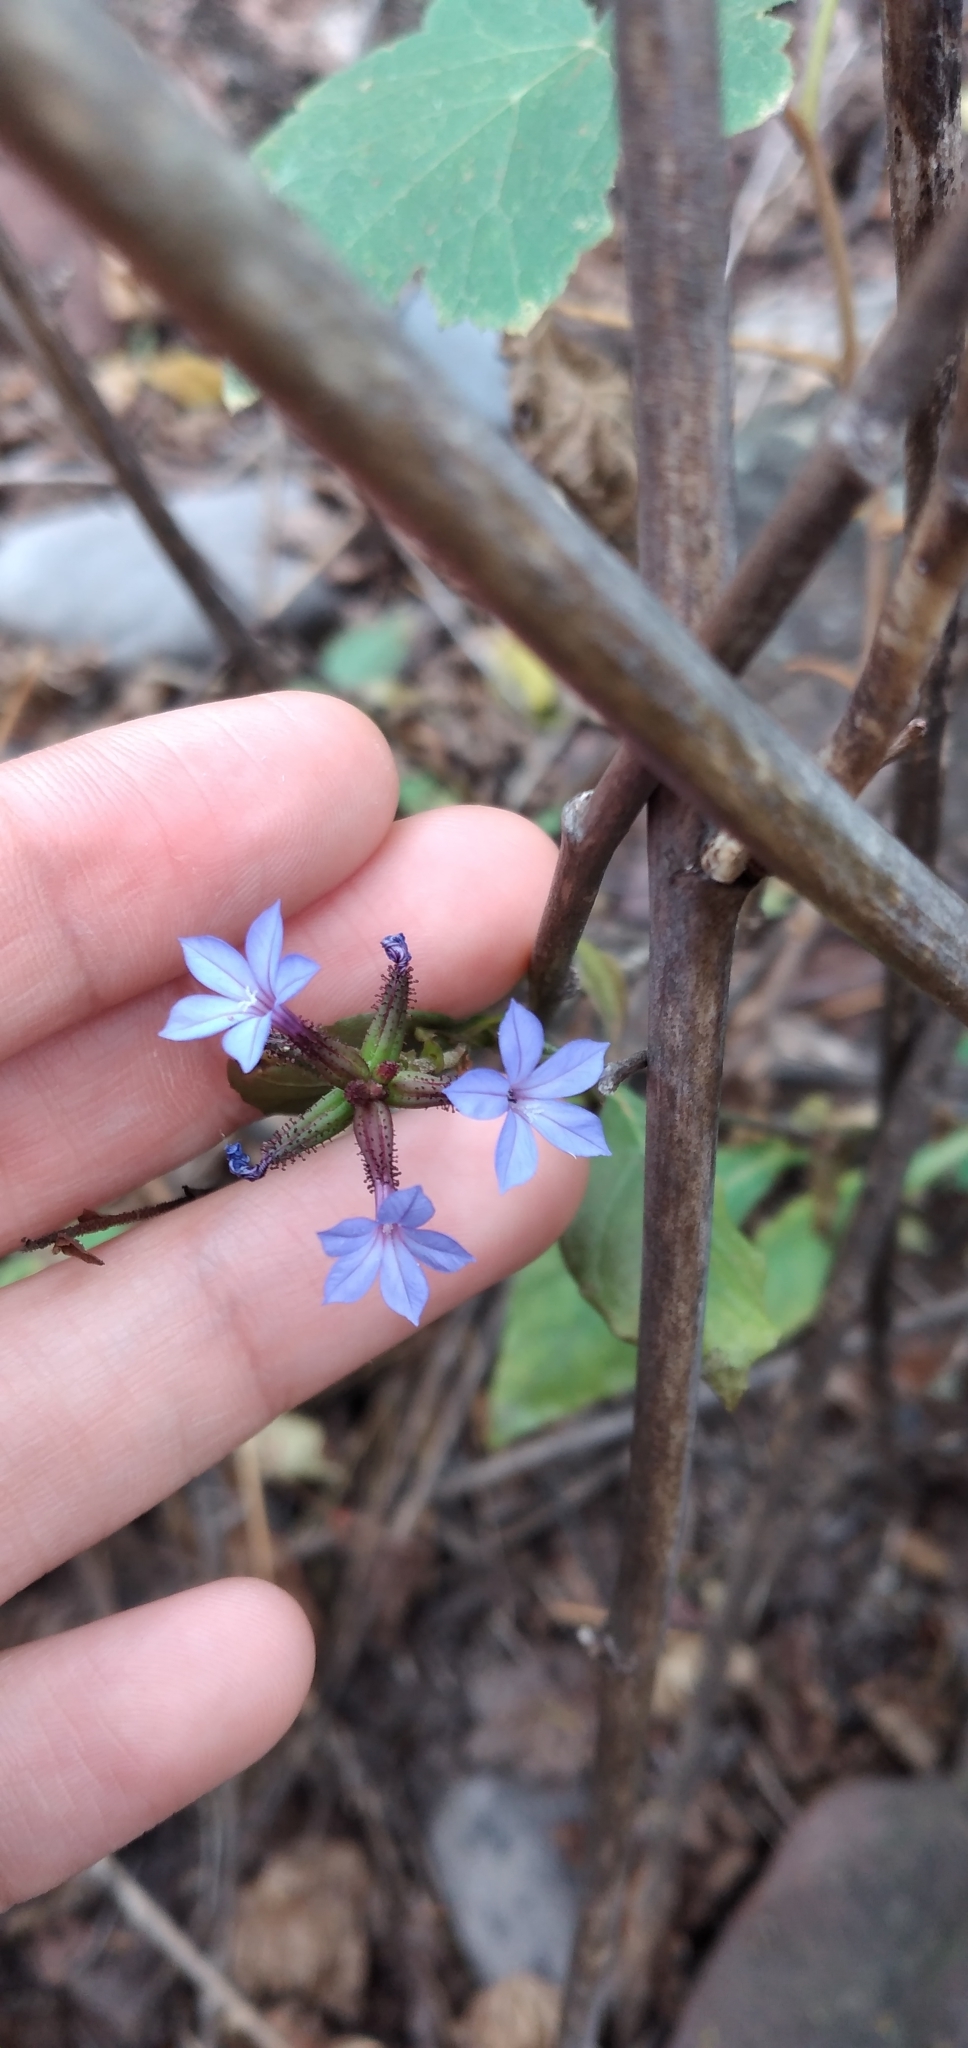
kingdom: Plantae
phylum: Tracheophyta
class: Magnoliopsida
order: Caryophyllales
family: Plumbaginaceae
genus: Plumbago
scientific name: Plumbago caerulea
